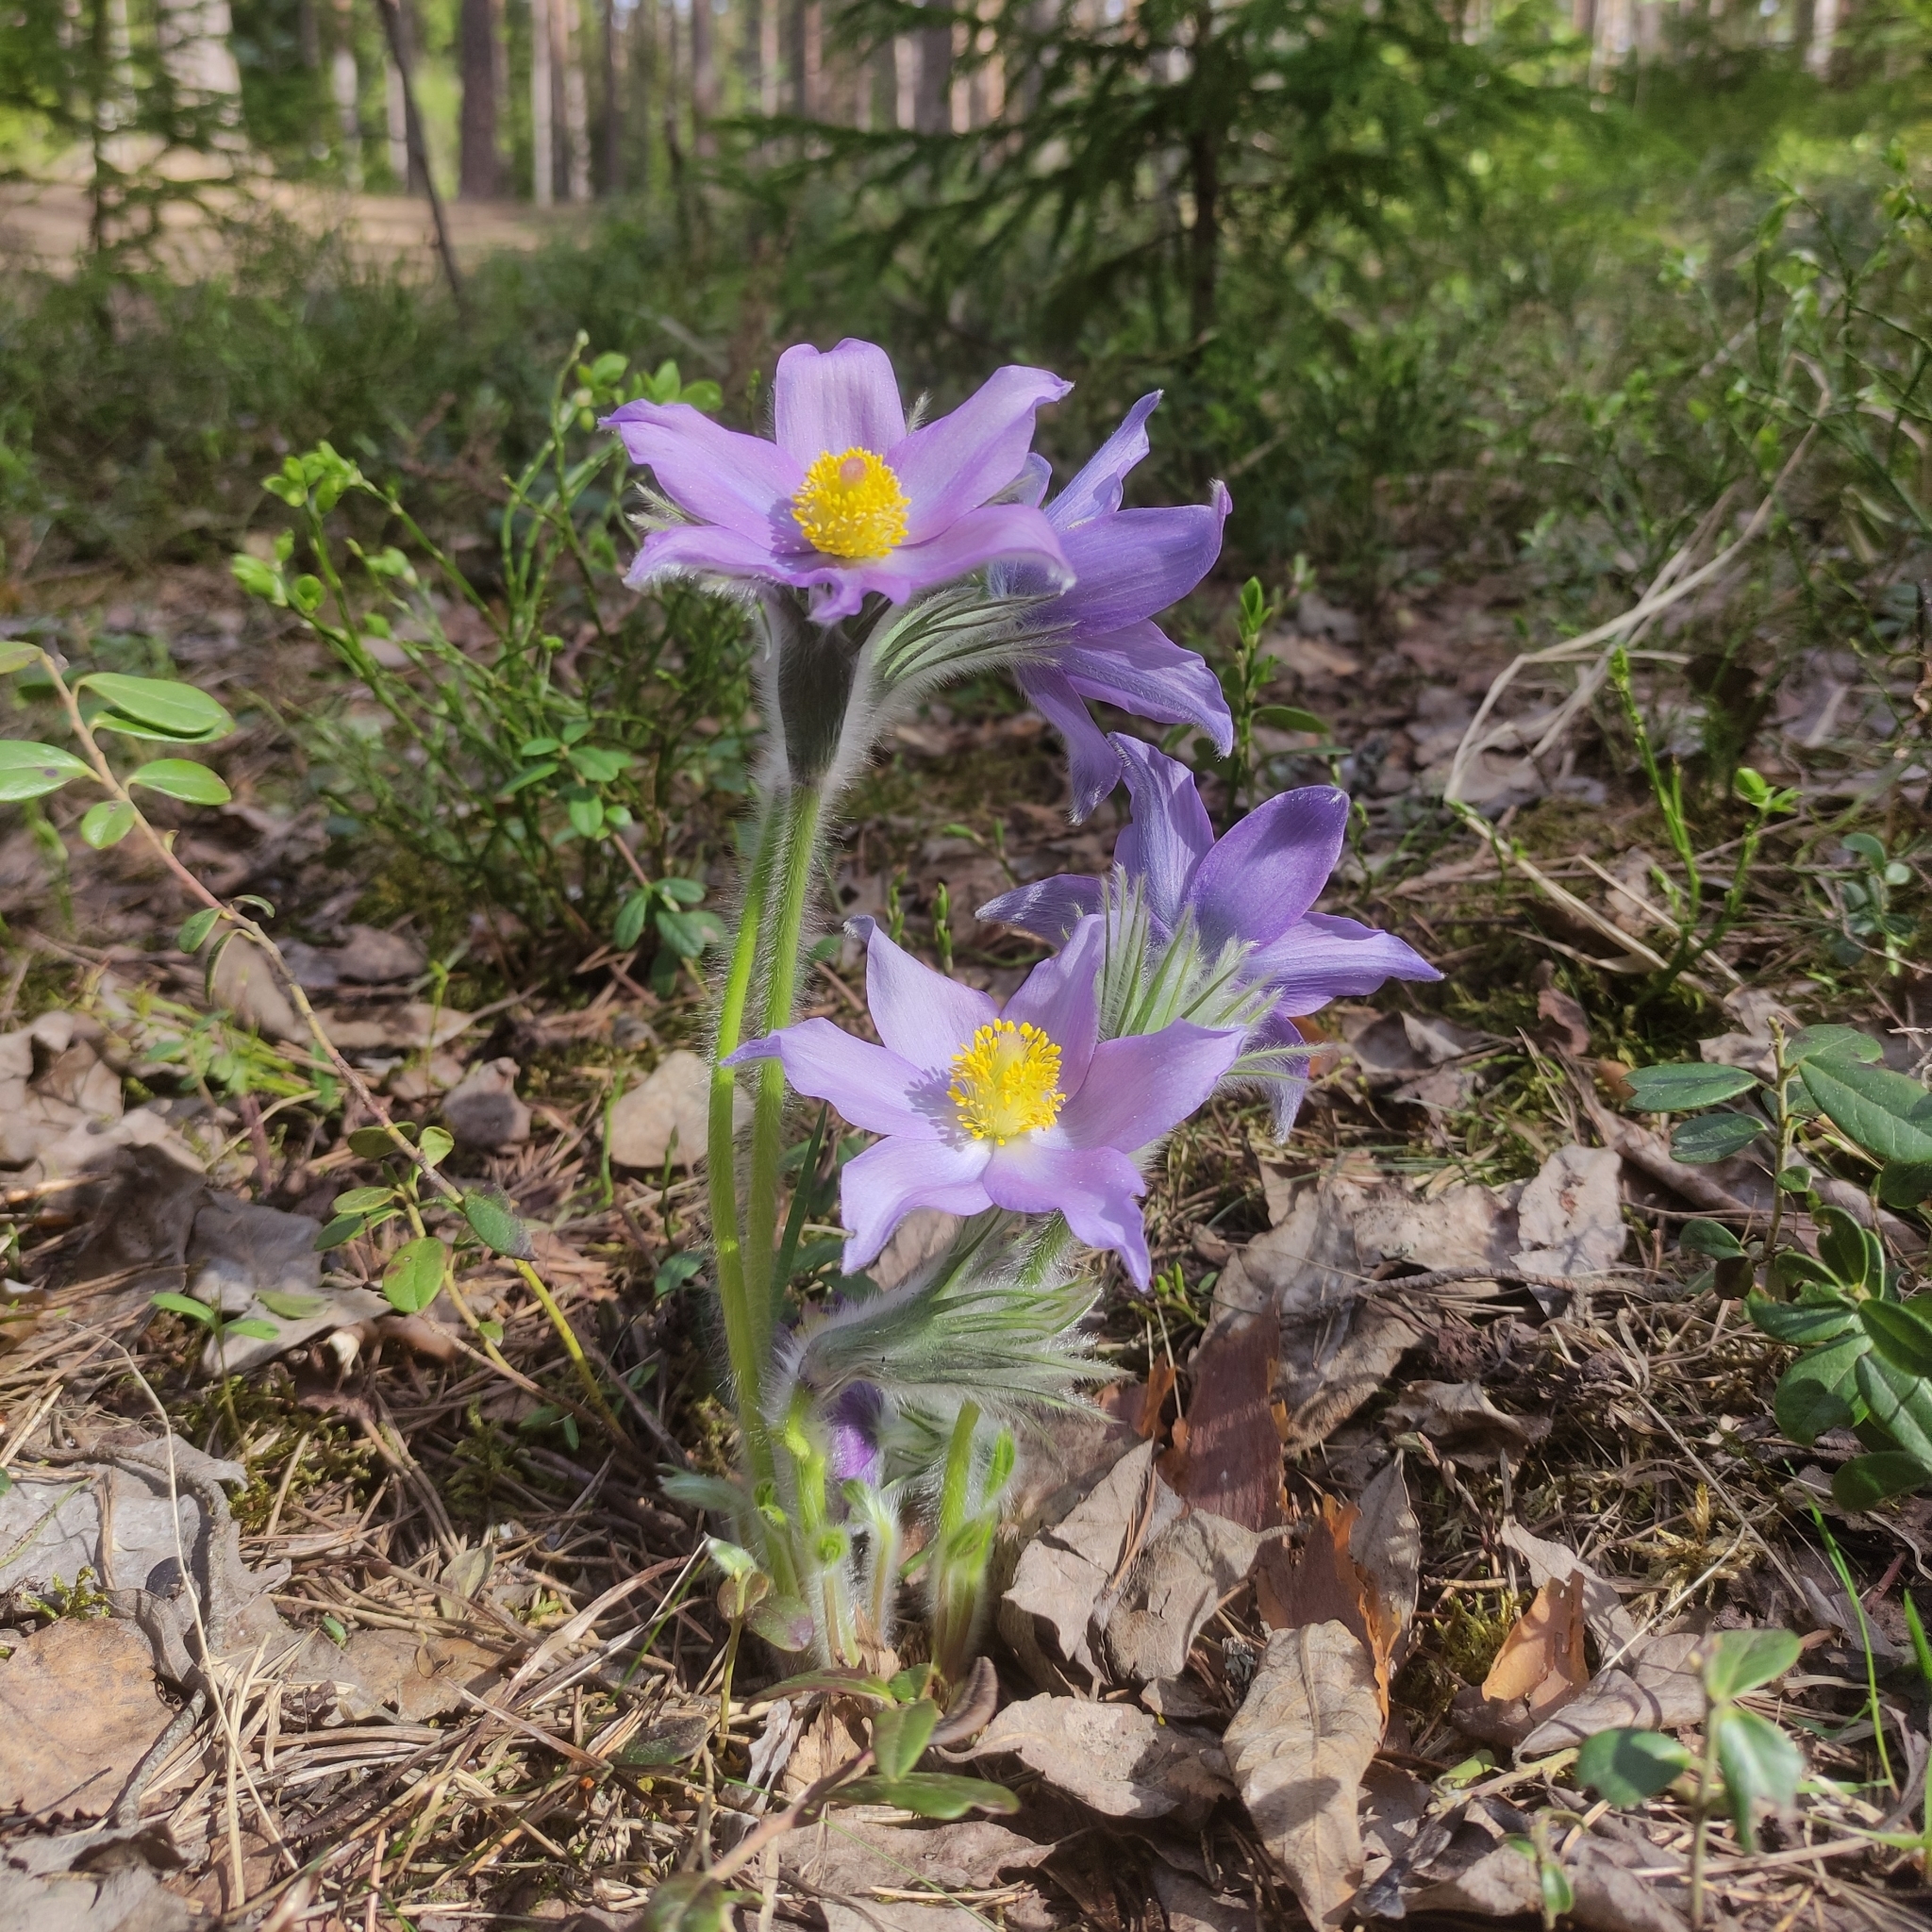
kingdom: Plantae
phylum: Tracheophyta
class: Magnoliopsida
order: Ranunculales
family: Ranunculaceae
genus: Pulsatilla
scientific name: Pulsatilla patens
